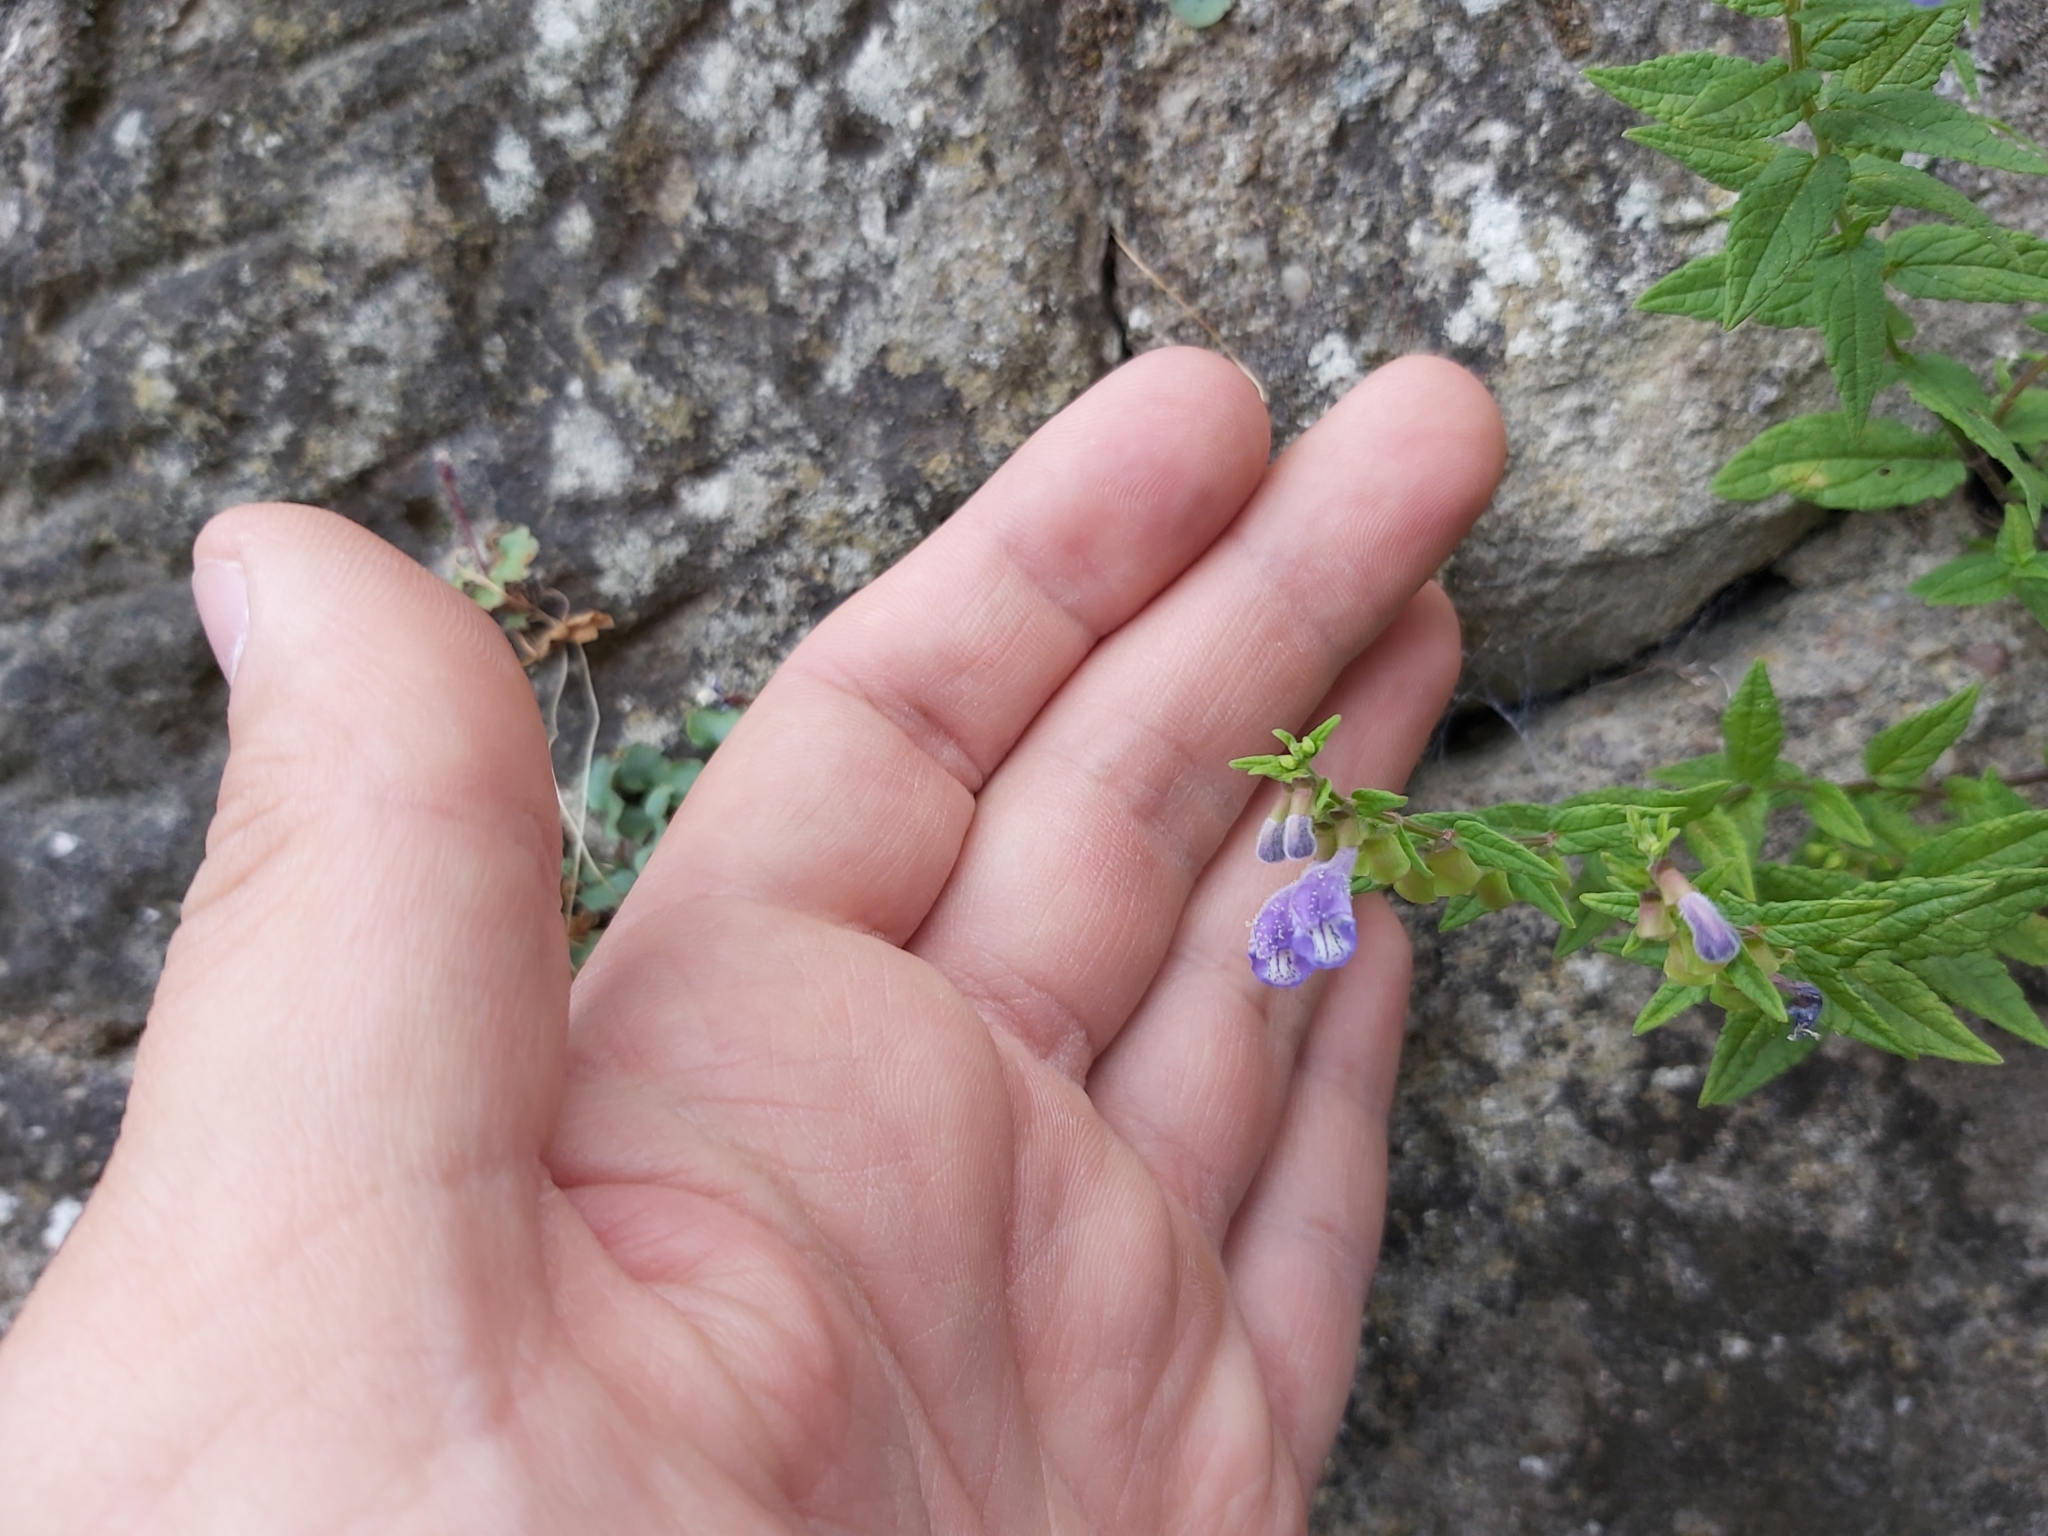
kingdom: Plantae
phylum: Tracheophyta
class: Magnoliopsida
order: Lamiales
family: Lamiaceae
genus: Scutellaria
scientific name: Scutellaria galericulata
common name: Skullcap
